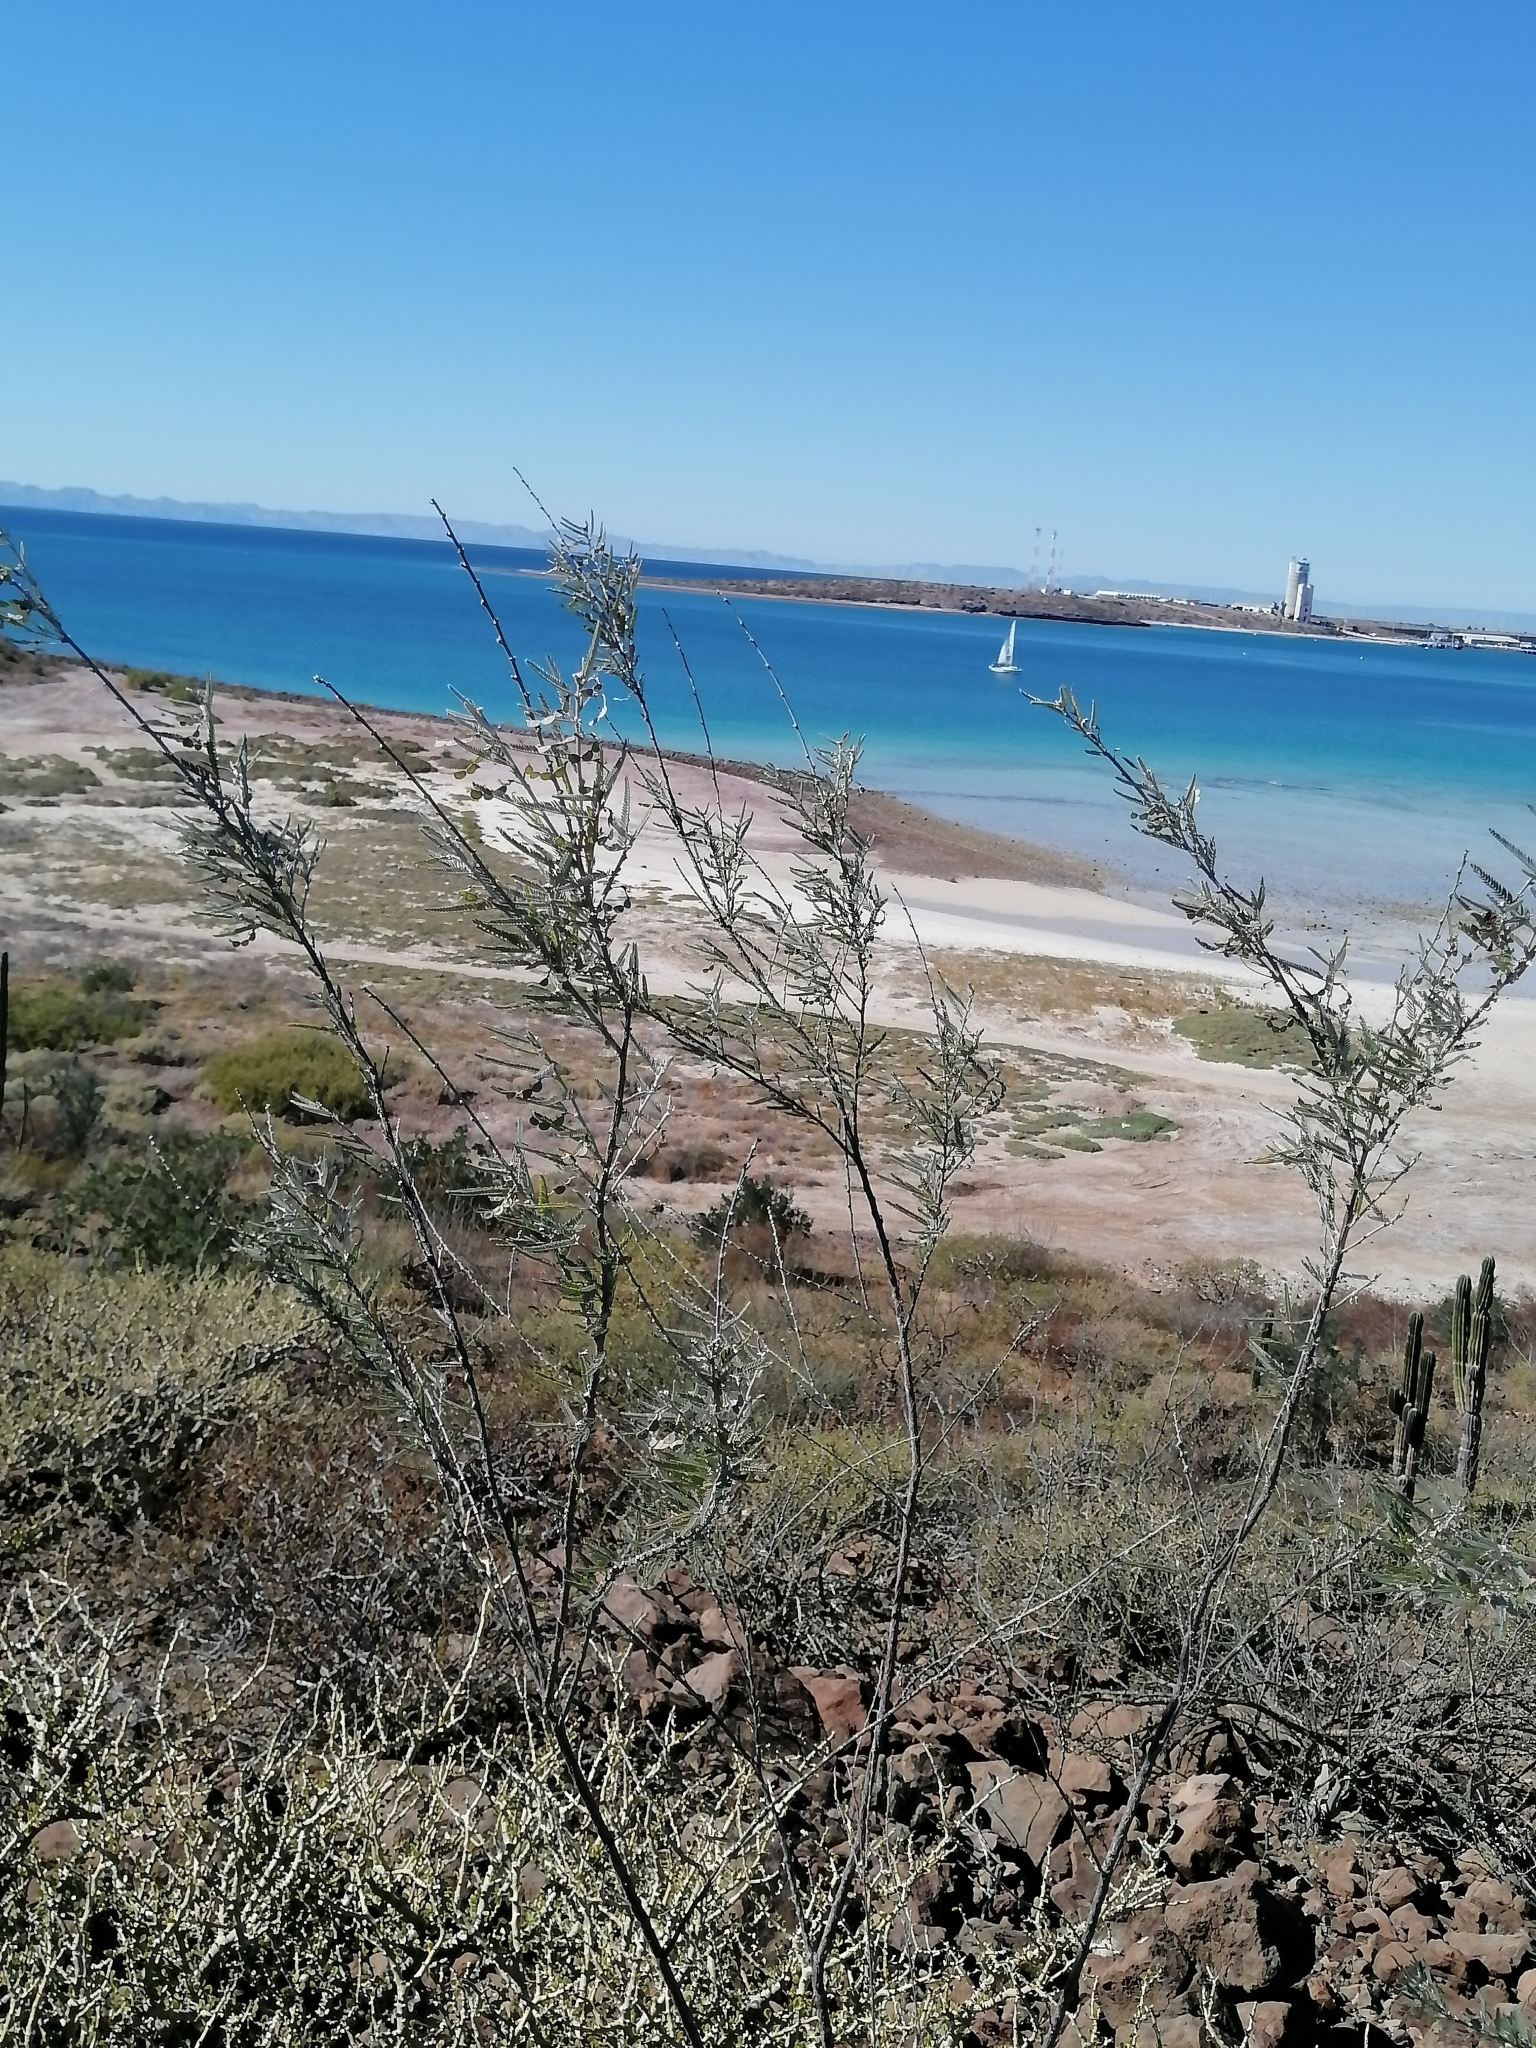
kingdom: Plantae
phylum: Tracheophyta
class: Magnoliopsida
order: Fabales
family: Fabaceae
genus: Ctenodon
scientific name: Ctenodon niveus
